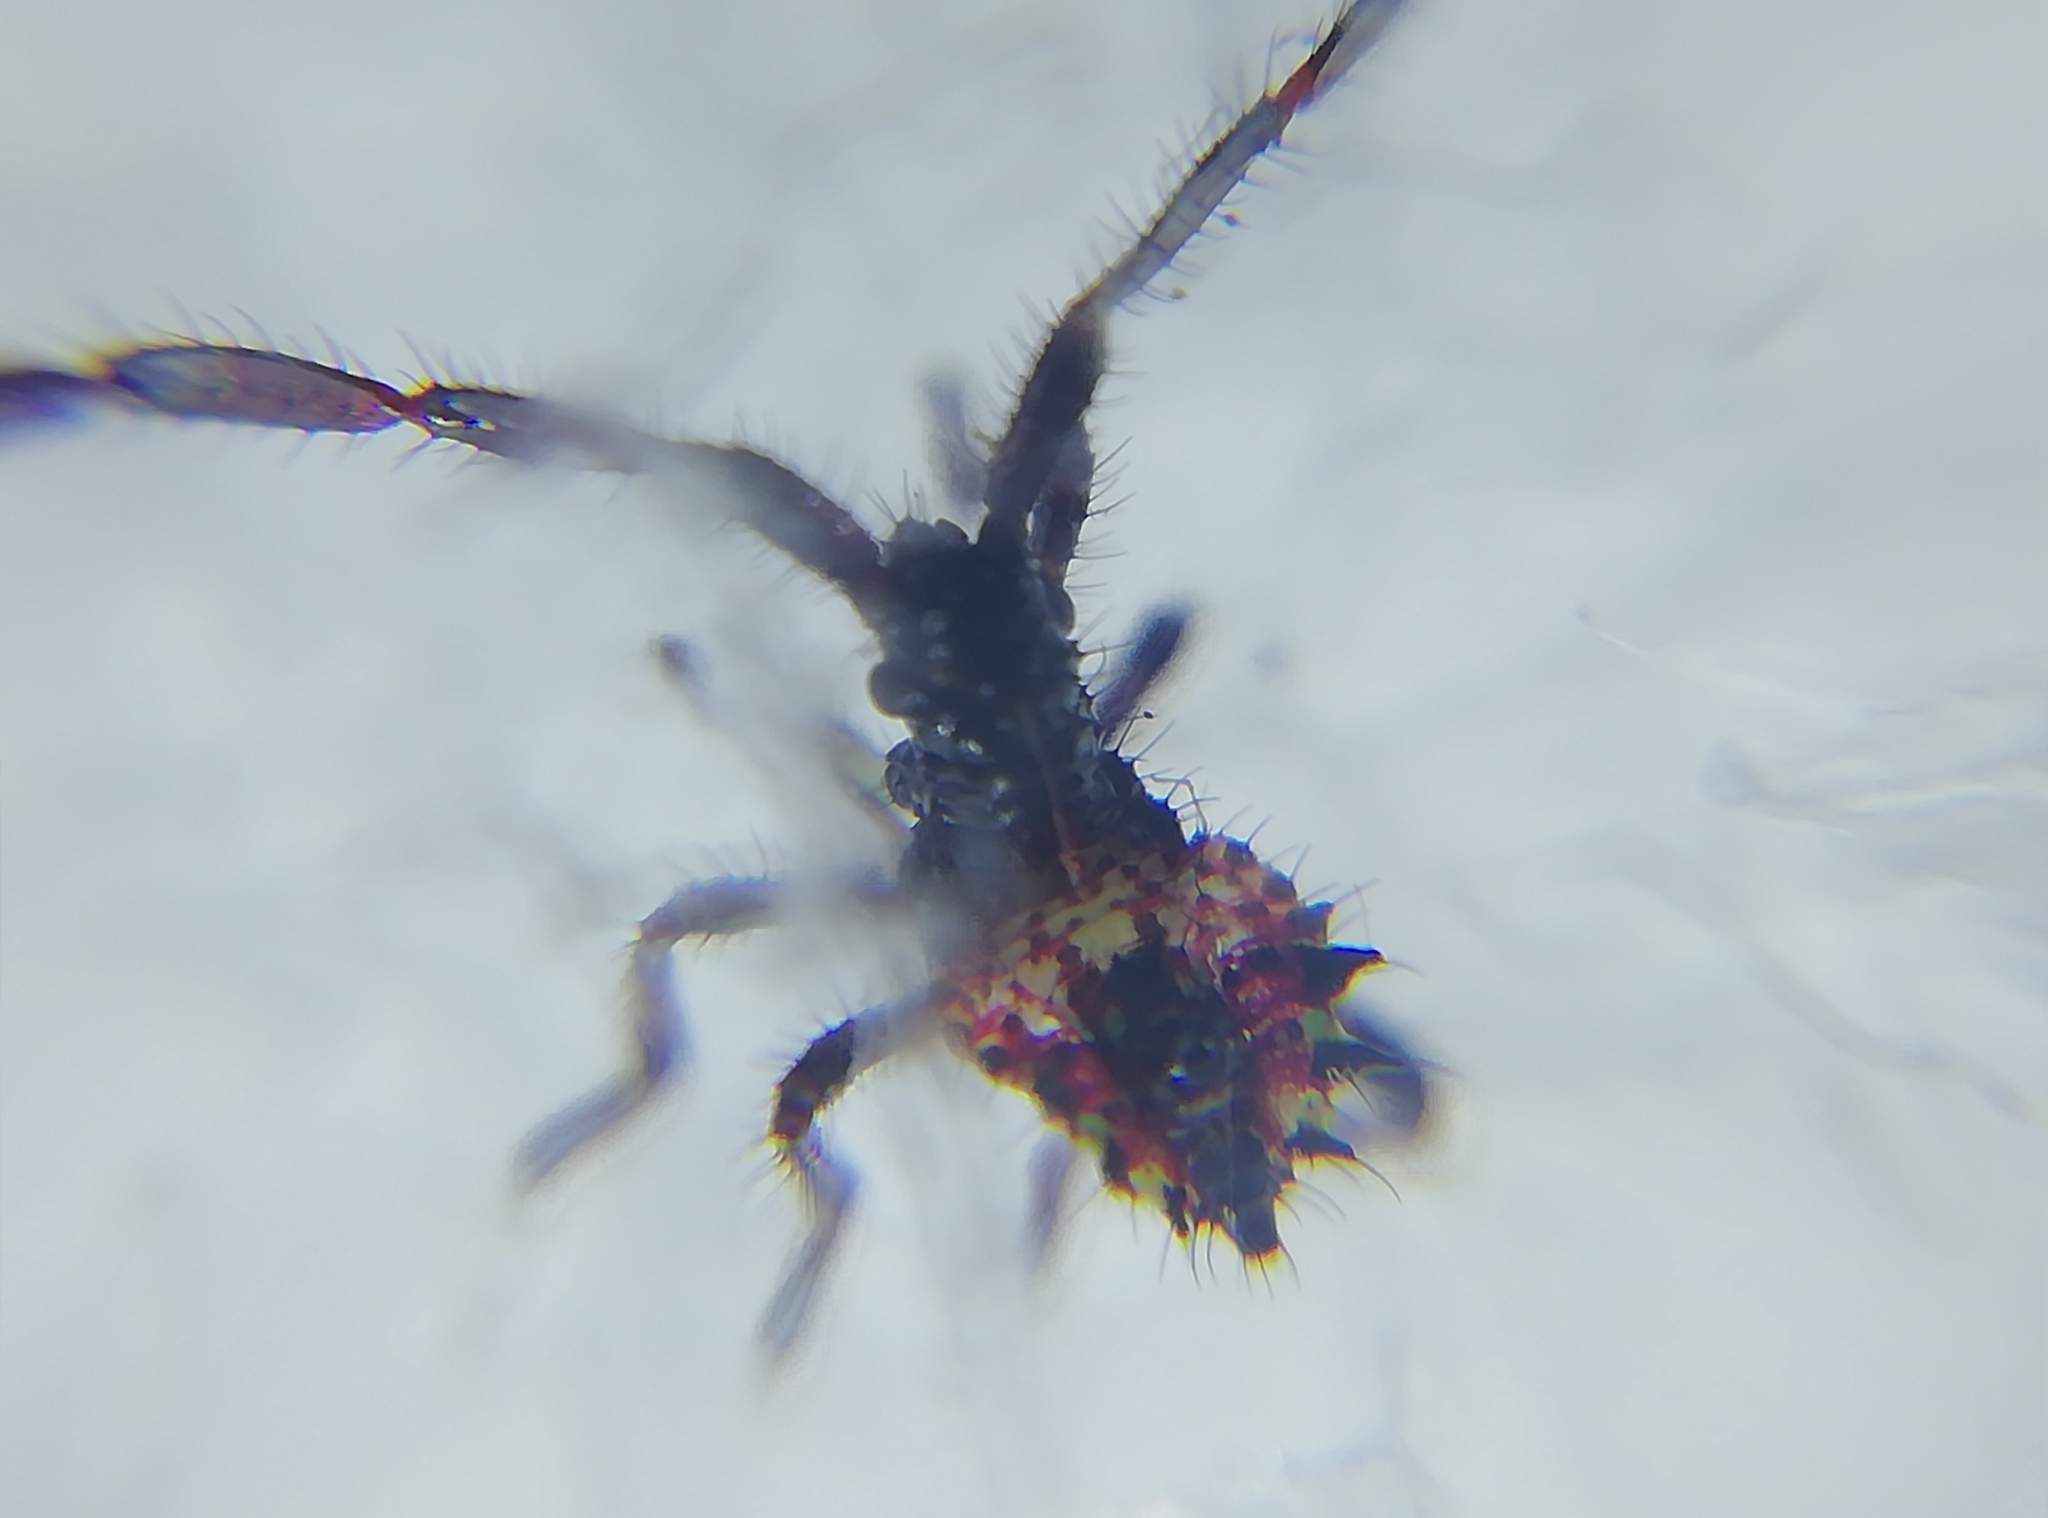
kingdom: Animalia
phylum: Arthropoda
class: Insecta
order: Hemiptera
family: Coreidae
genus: Coreus
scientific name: Coreus marginatus
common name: Dock bug
